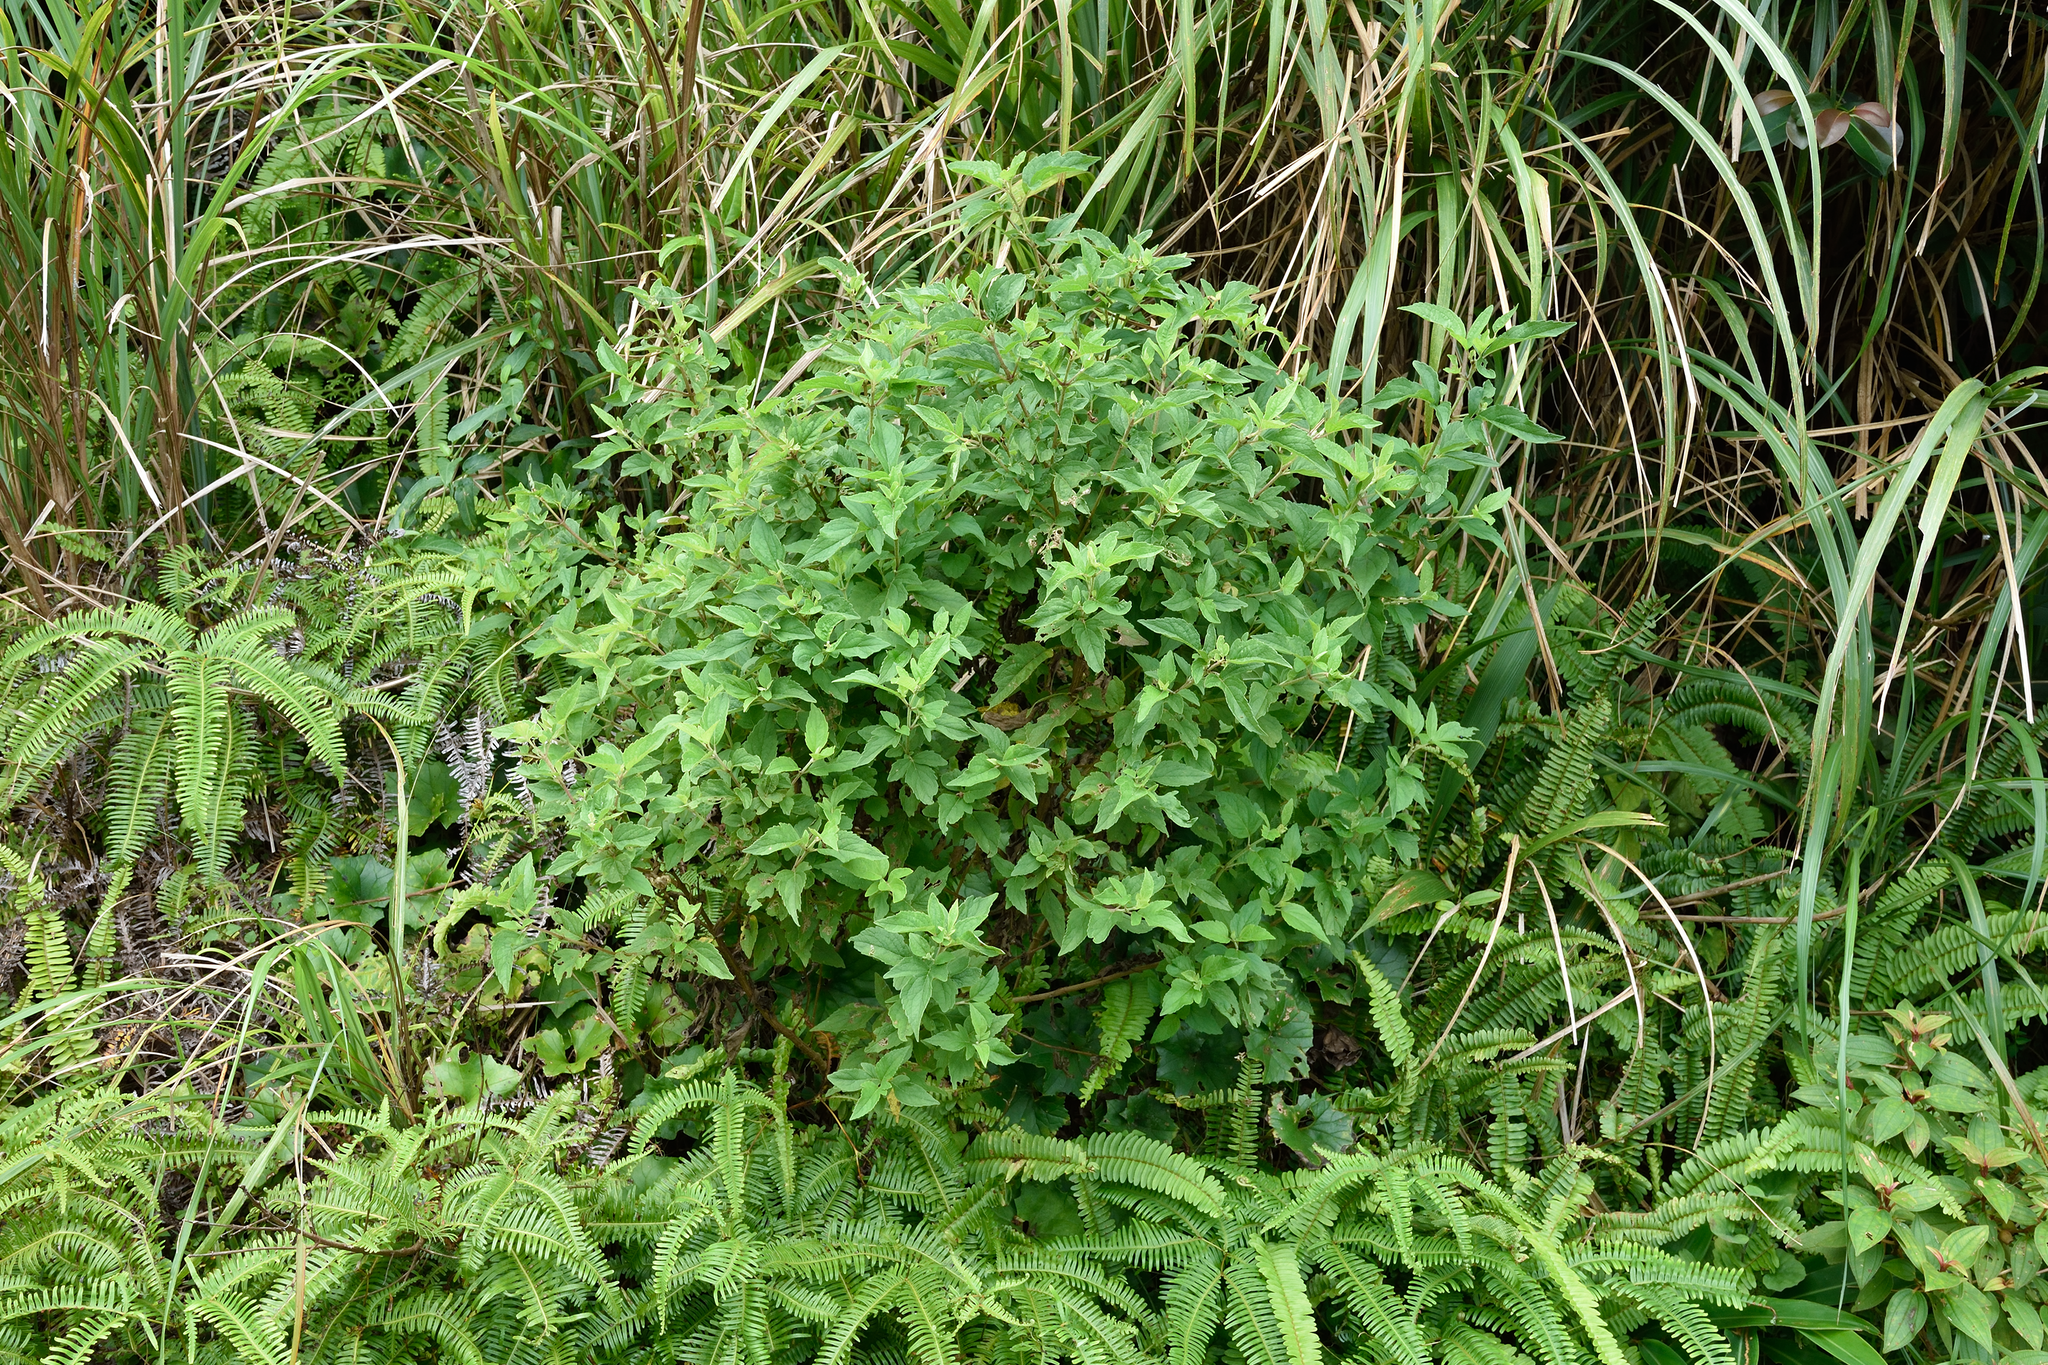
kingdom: Plantae
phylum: Tracheophyta
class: Magnoliopsida
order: Asterales
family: Asteraceae
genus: Eupatorium
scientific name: Eupatorium formosanum
